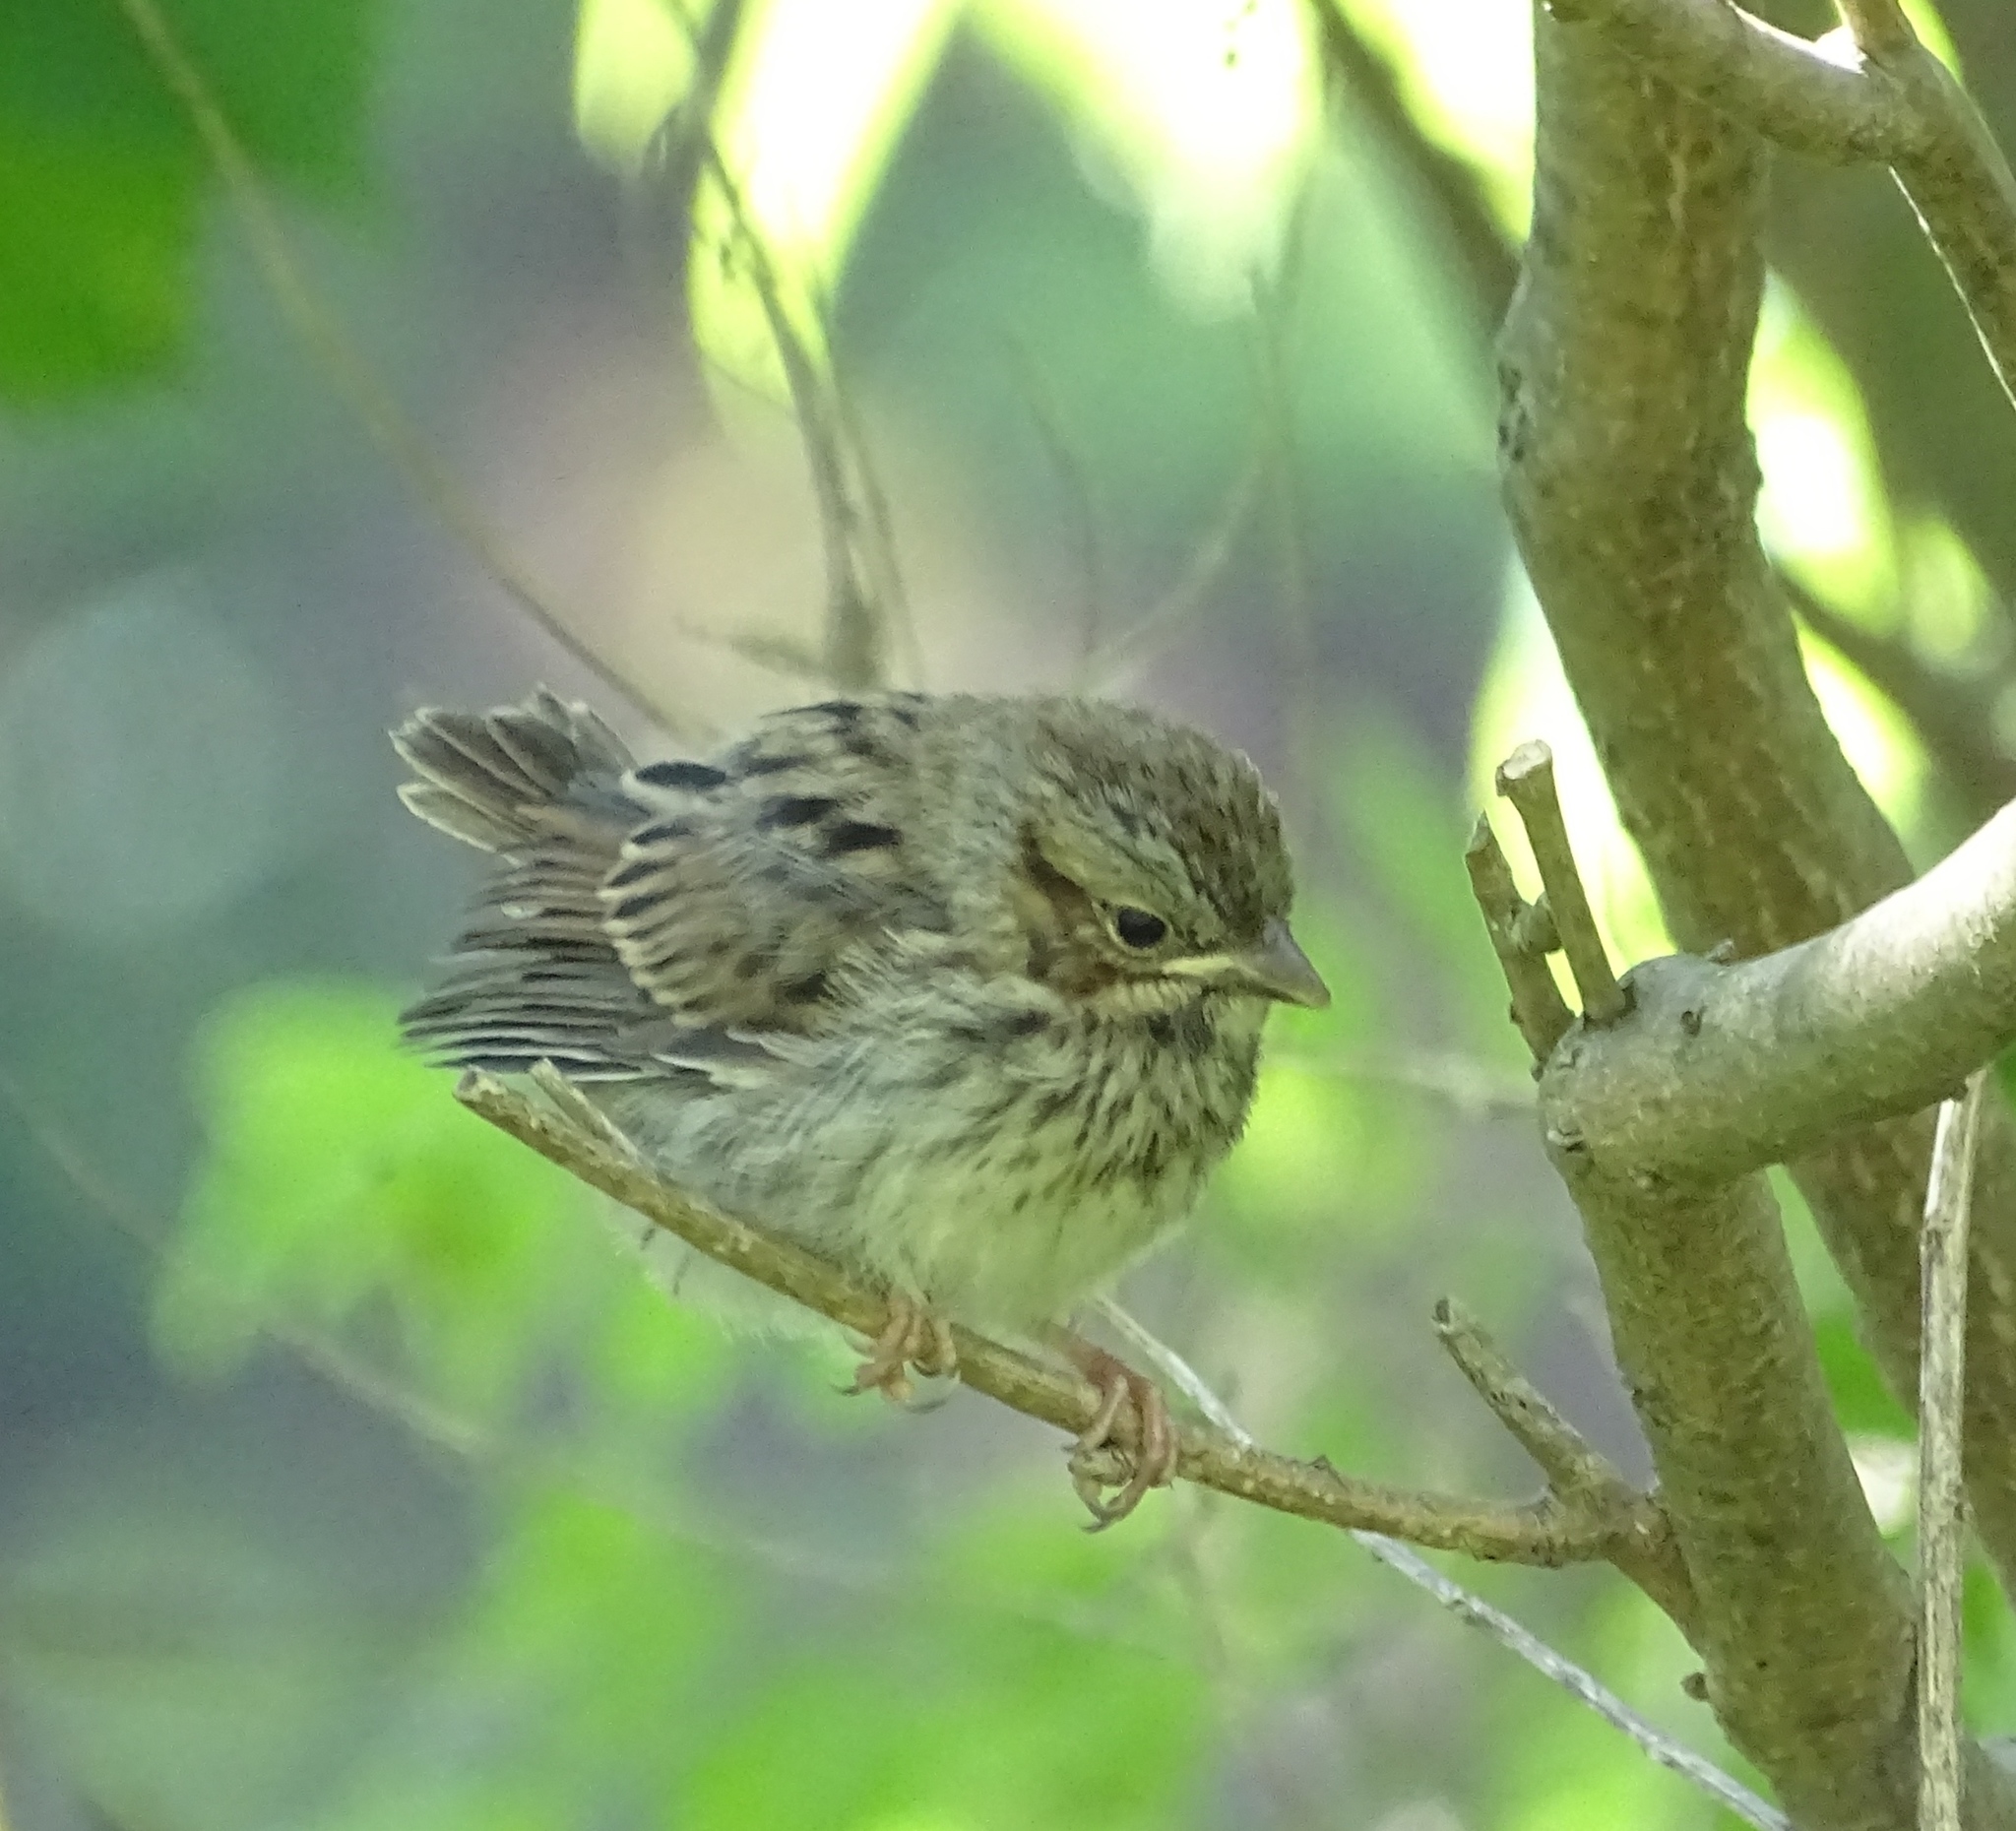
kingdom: Animalia
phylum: Chordata
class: Aves
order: Passeriformes
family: Passerellidae
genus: Melospiza
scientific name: Melospiza melodia
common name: Song sparrow
